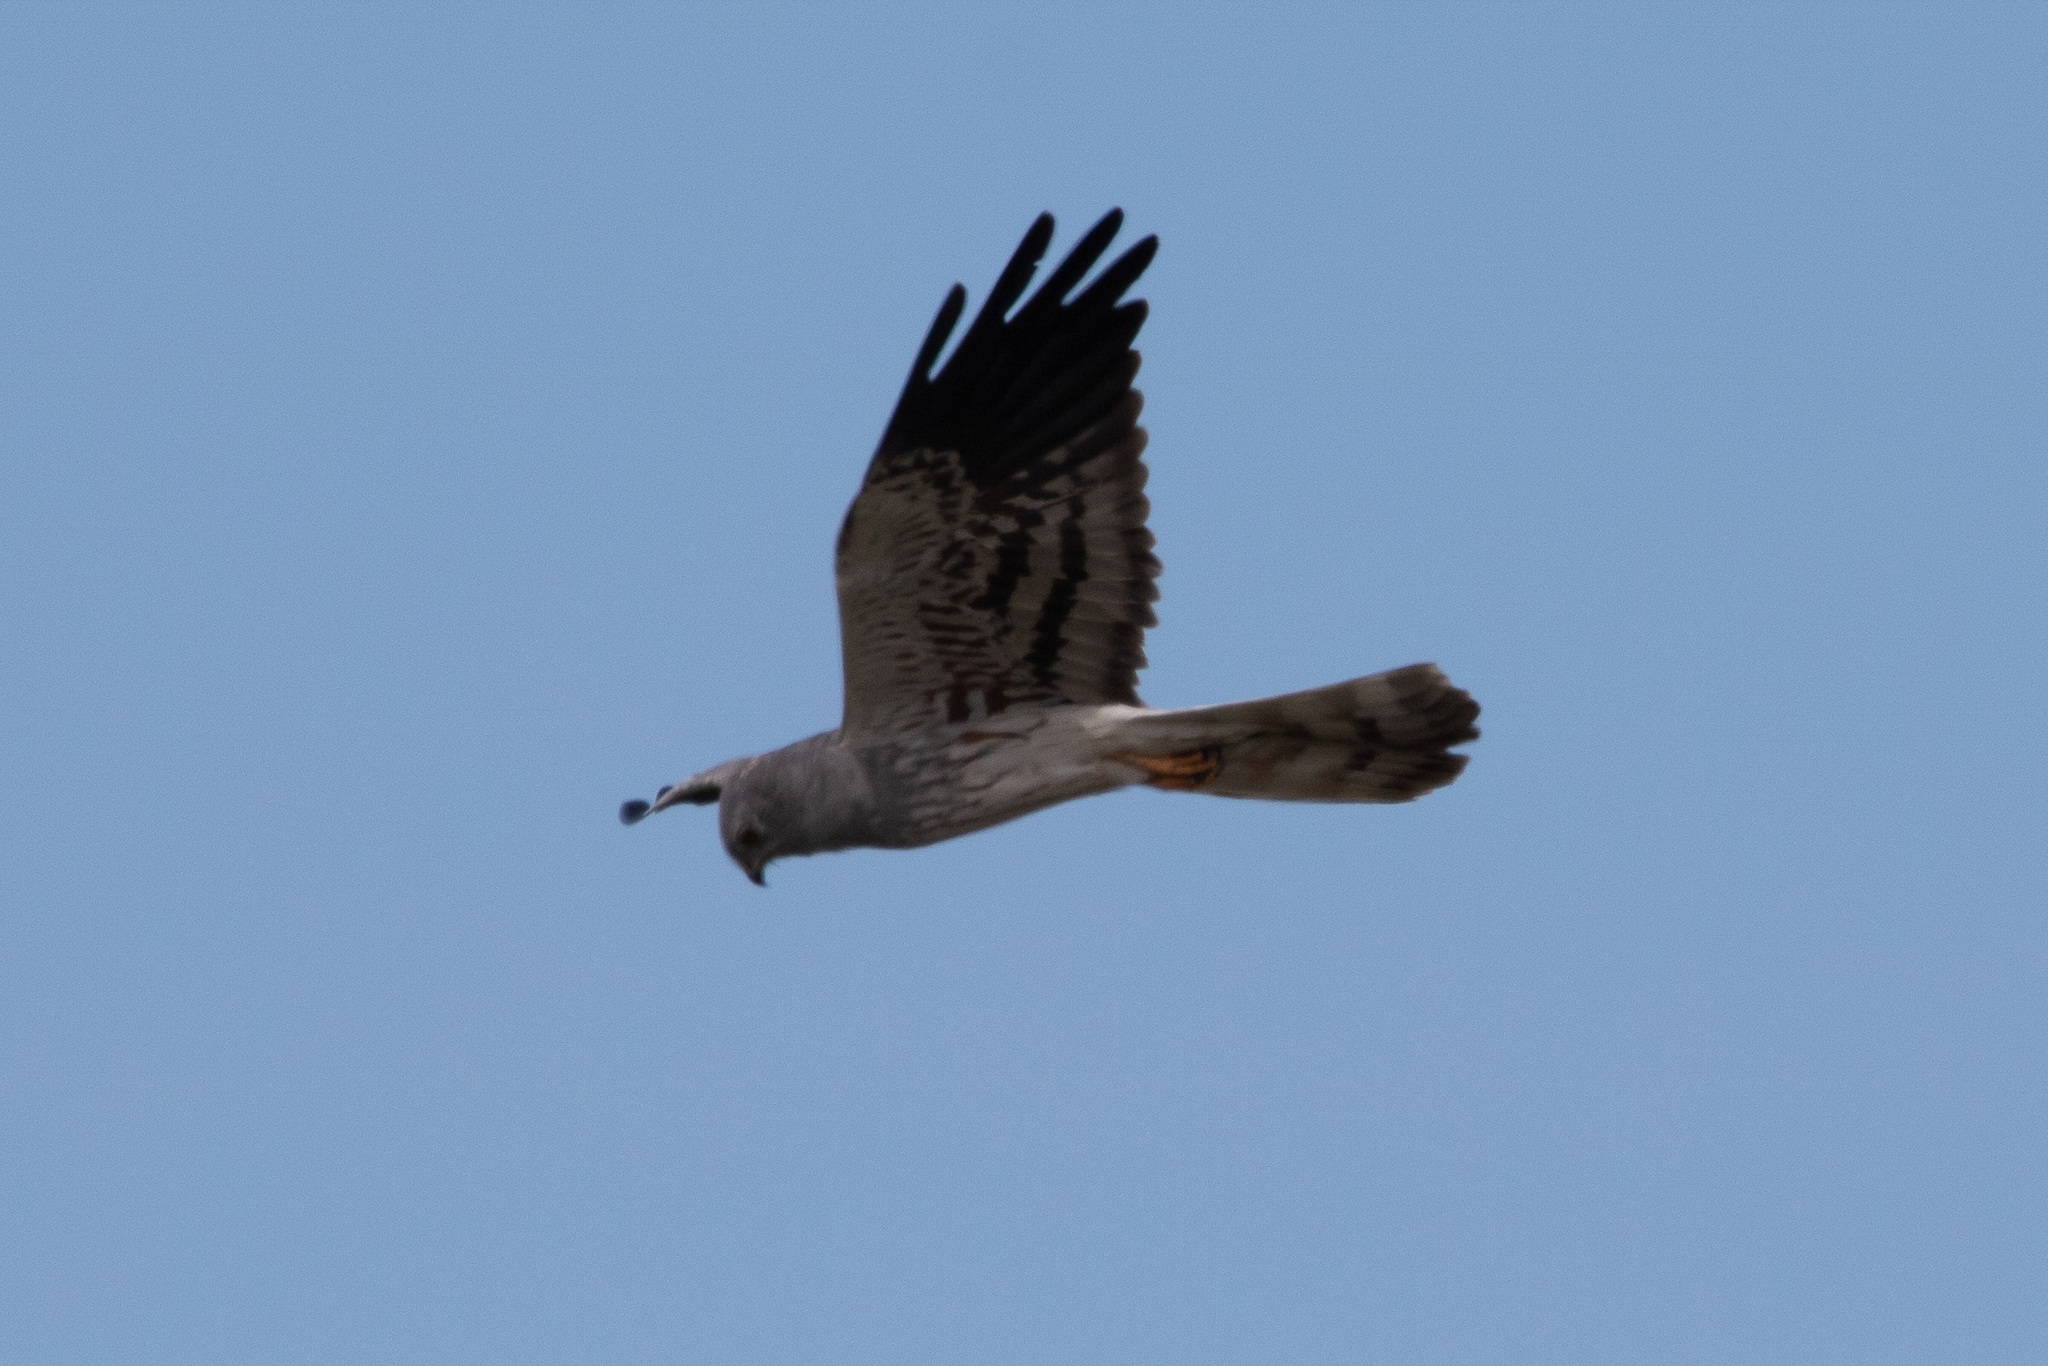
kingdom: Animalia
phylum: Chordata
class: Aves
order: Accipitriformes
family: Accipitridae
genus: Circus
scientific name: Circus pygargus
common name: Montagu's harrier
